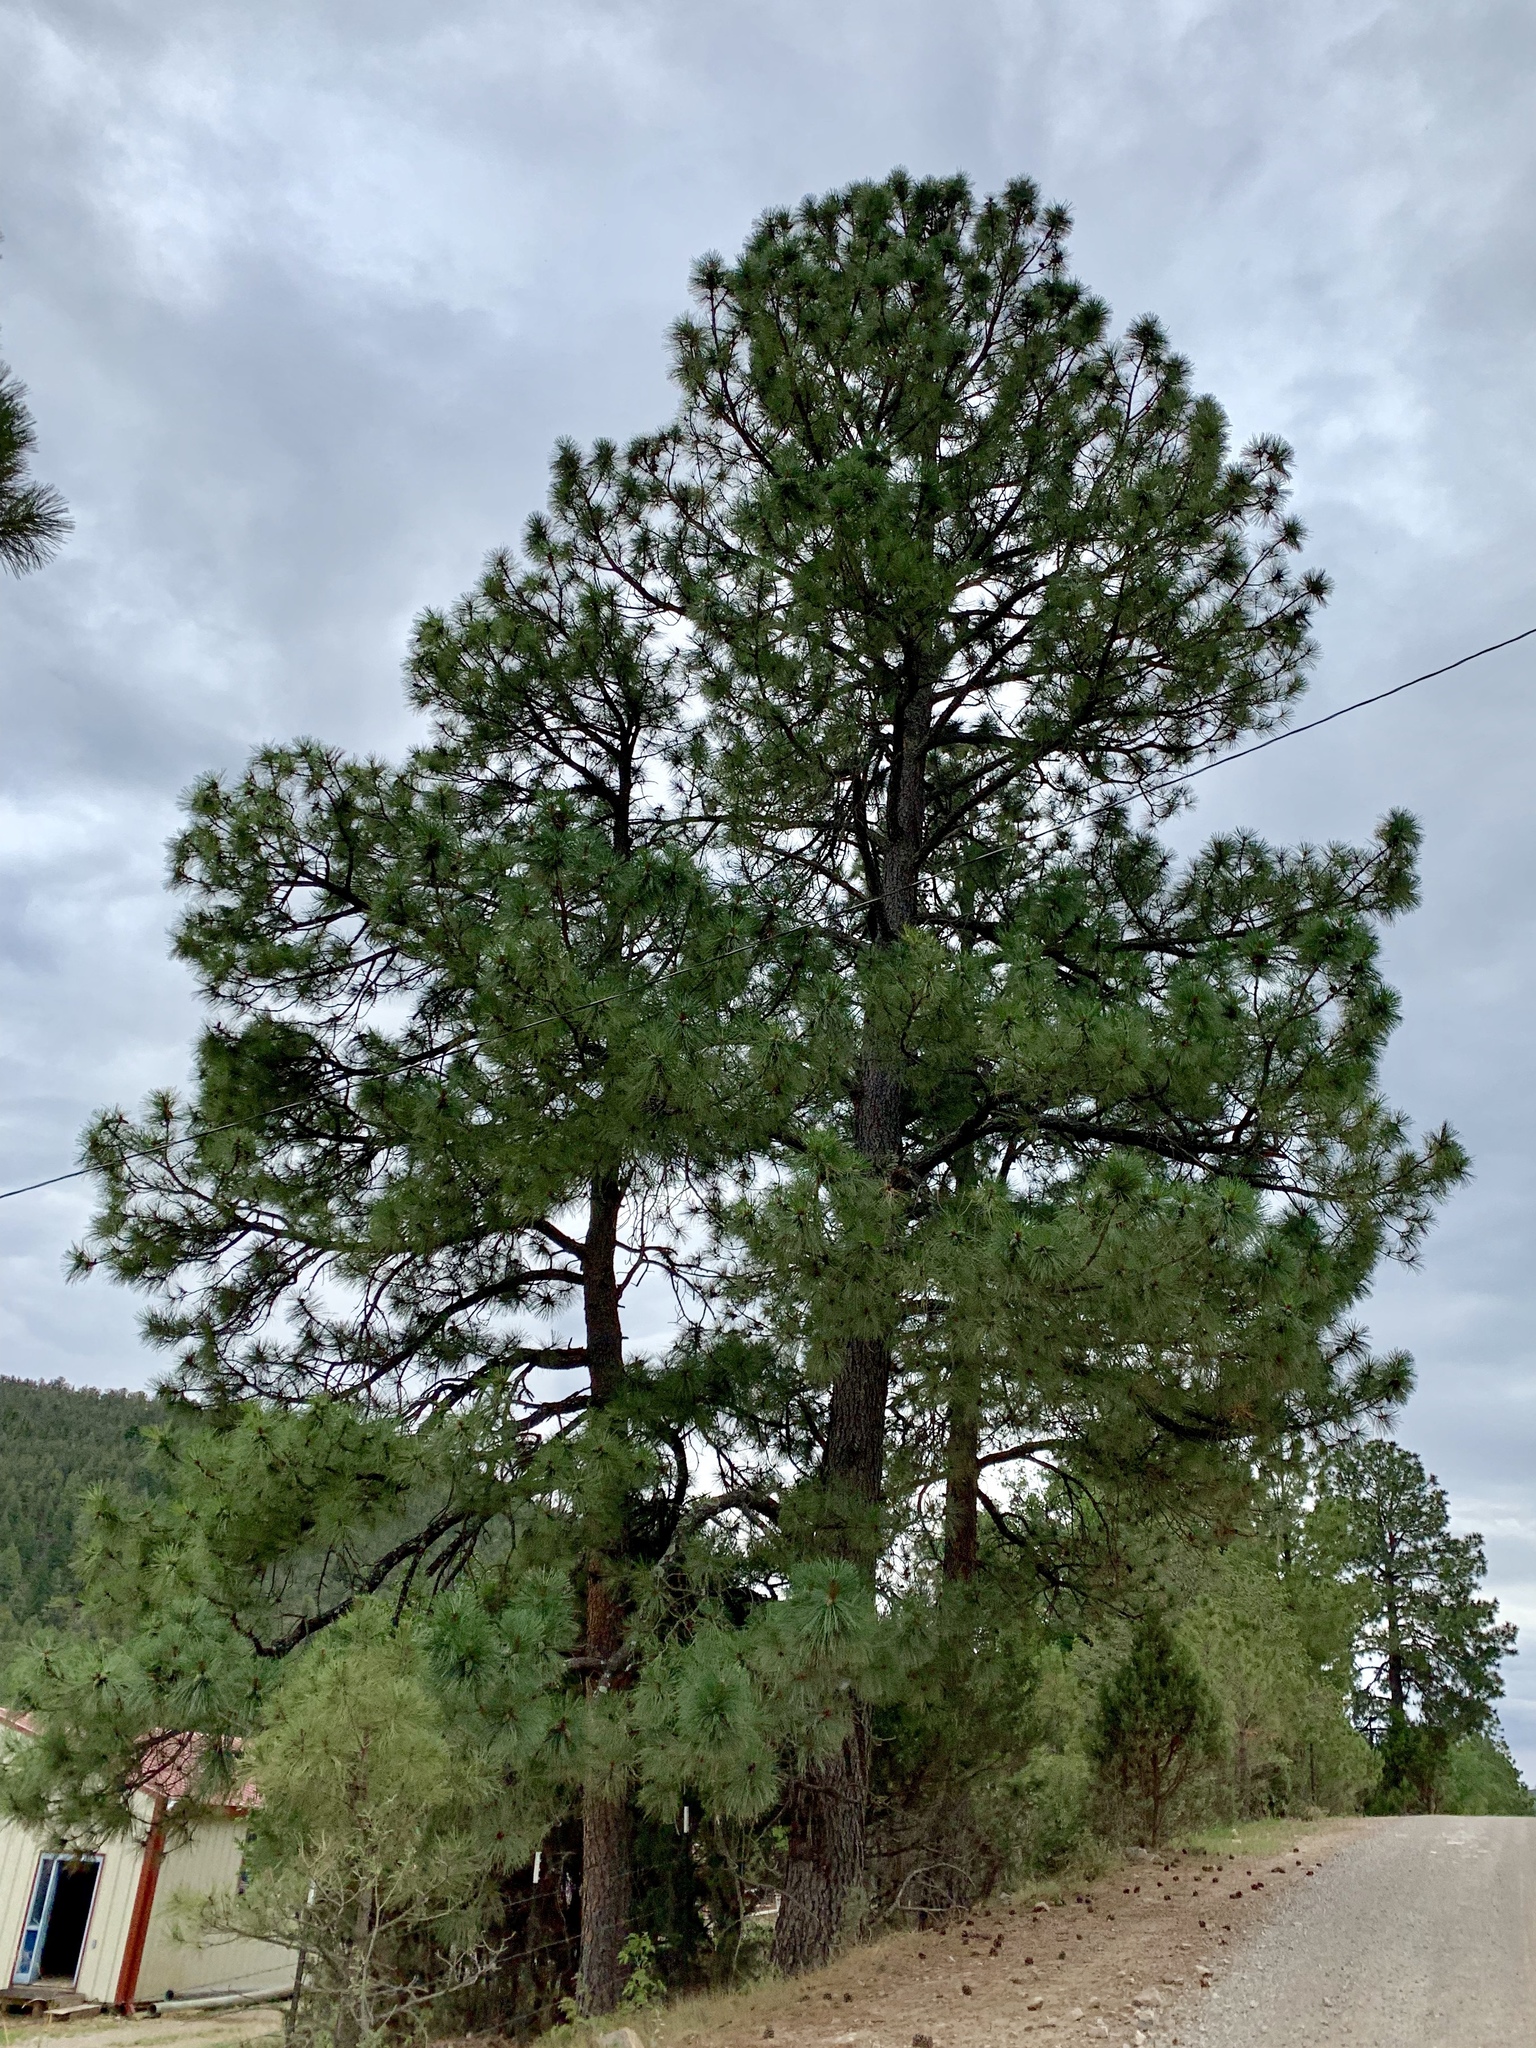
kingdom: Plantae
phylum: Tracheophyta
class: Pinopsida
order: Pinales
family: Pinaceae
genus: Pinus
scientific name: Pinus ponderosa
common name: Western yellow-pine
